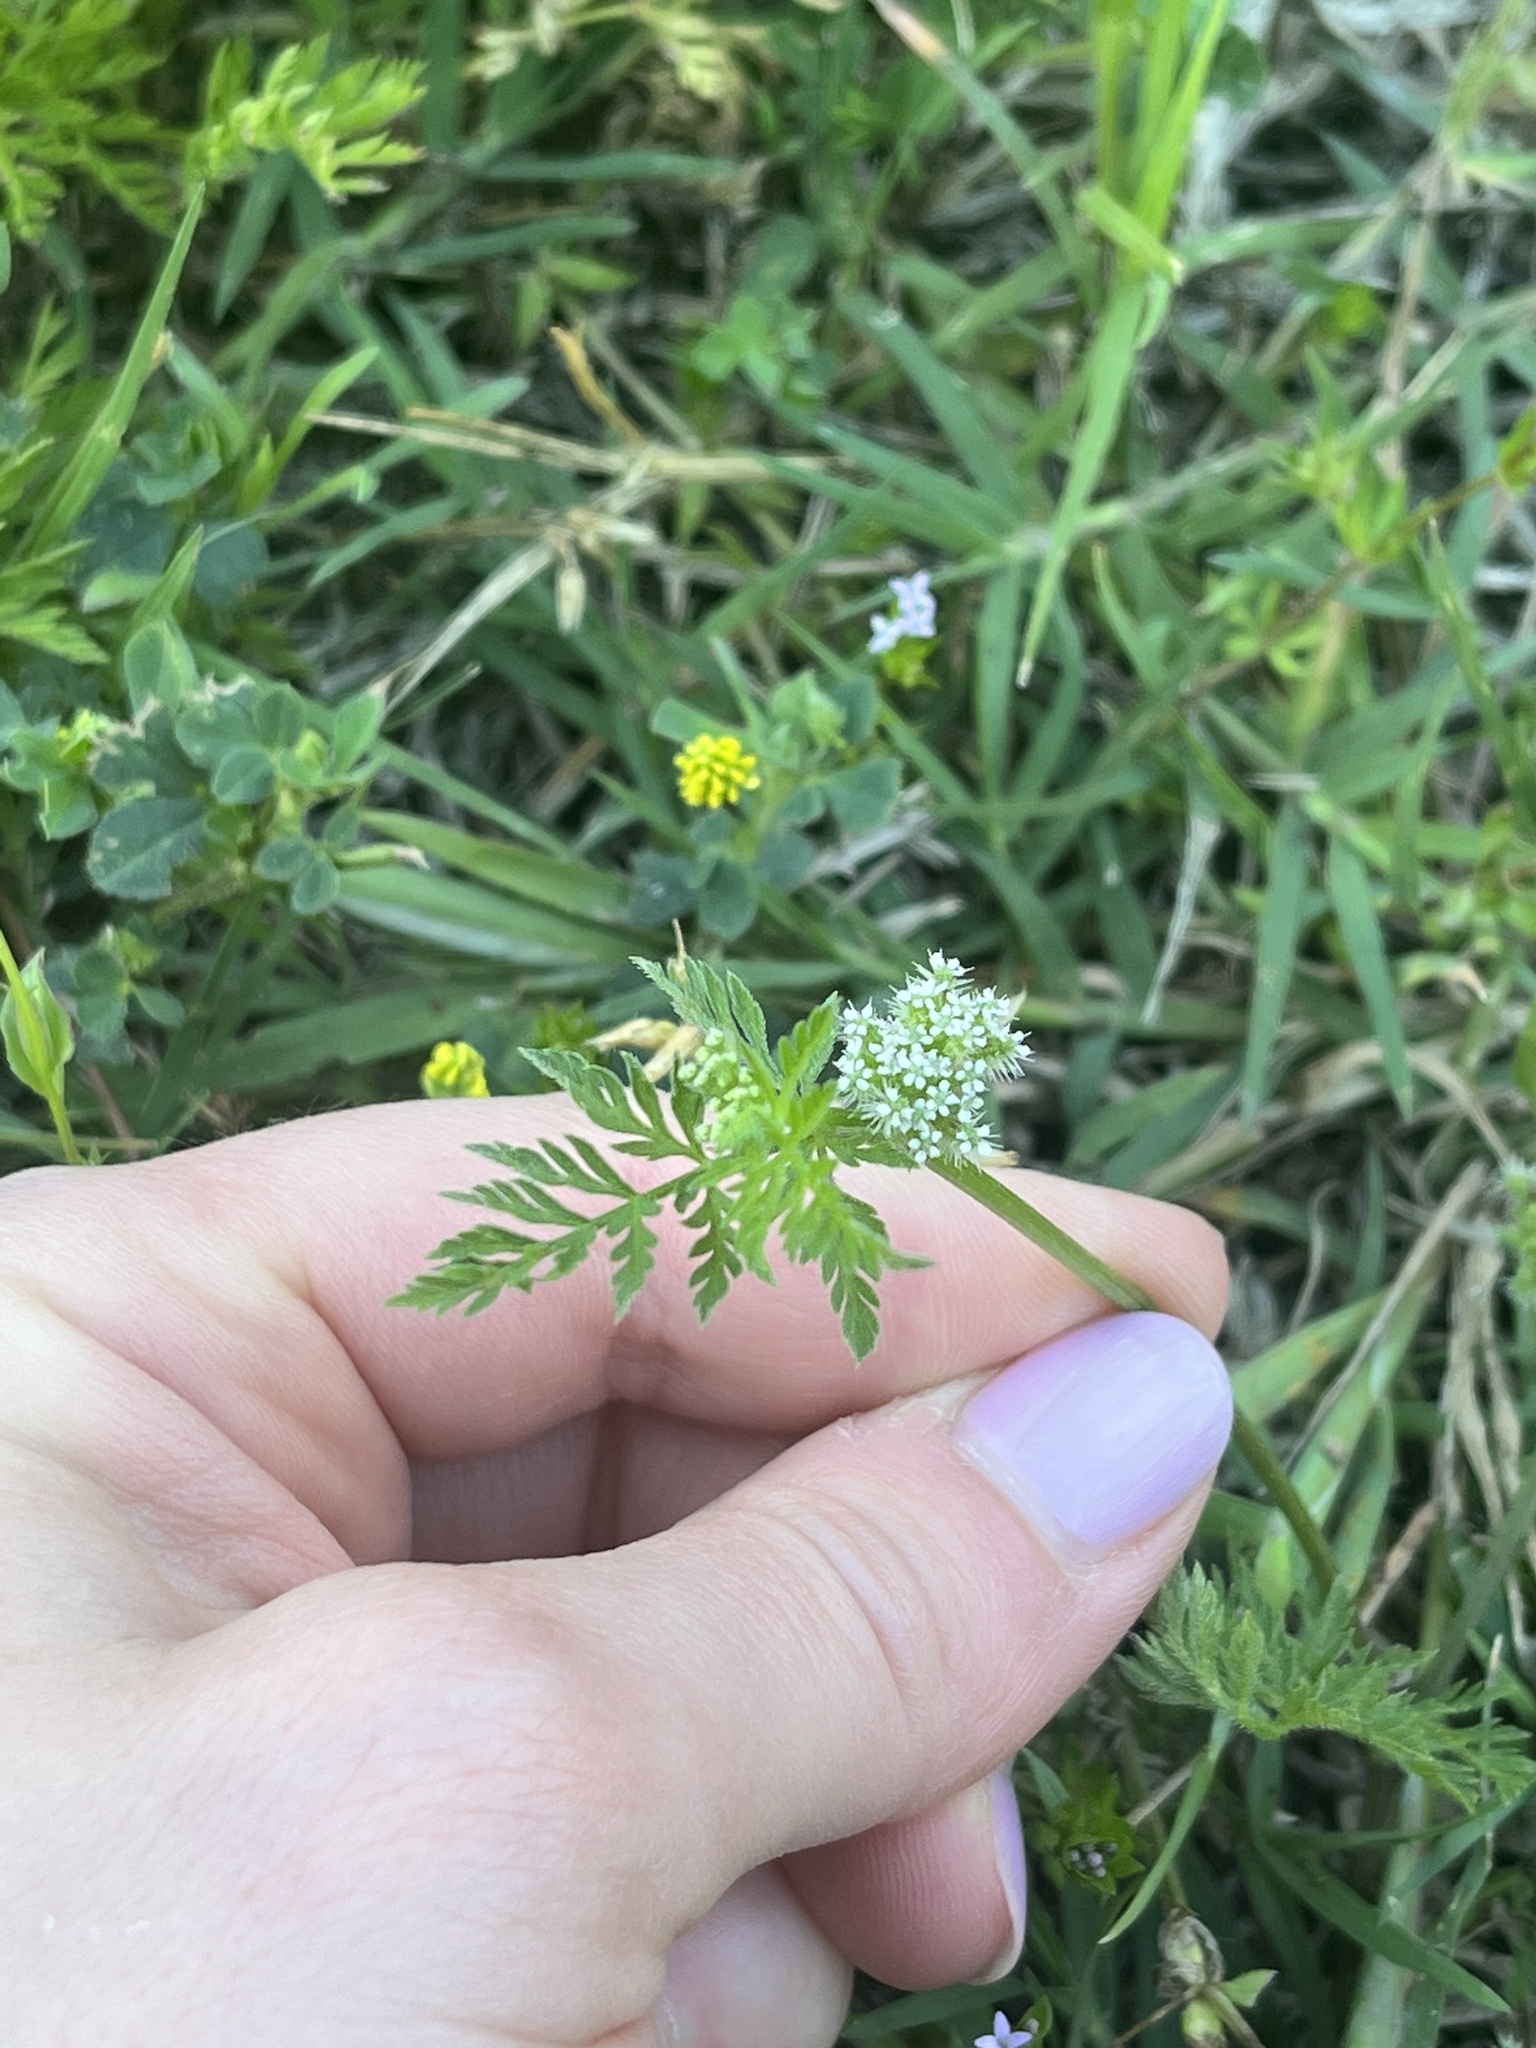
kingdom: Plantae
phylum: Tracheophyta
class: Magnoliopsida
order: Apiales
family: Apiaceae
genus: Torilis
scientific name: Torilis nodosa
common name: Knotted hedge-parsley
